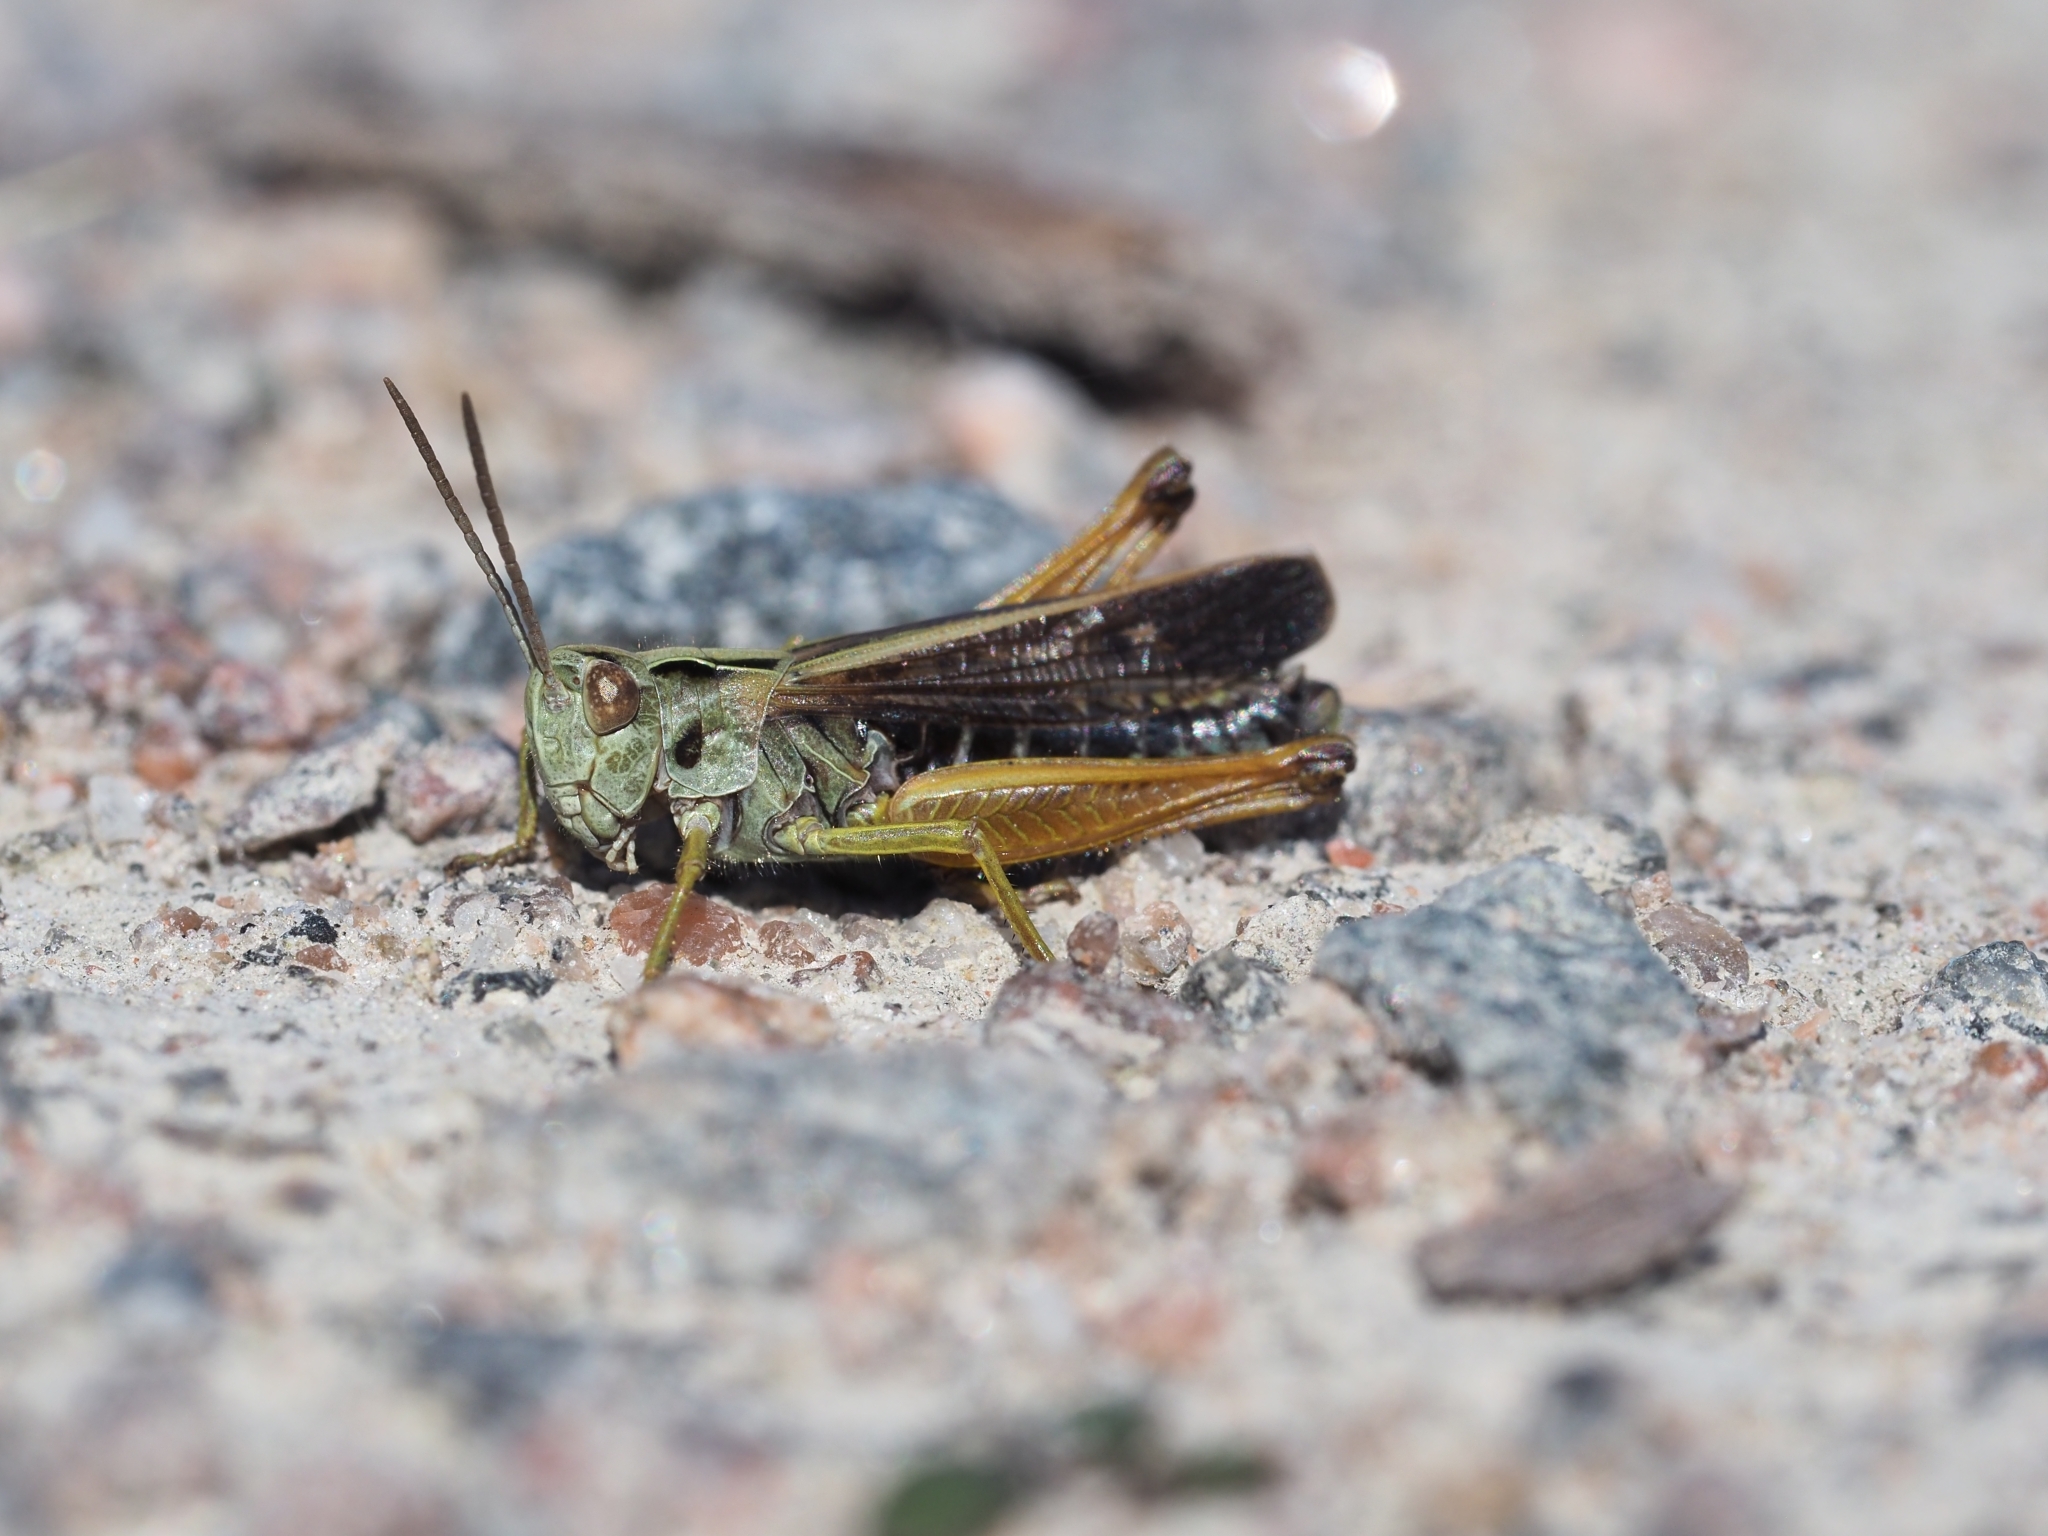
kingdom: Animalia
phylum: Arthropoda
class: Insecta
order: Orthoptera
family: Acrididae
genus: Omocestus
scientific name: Omocestus viridulus
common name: Common green grasshopper
